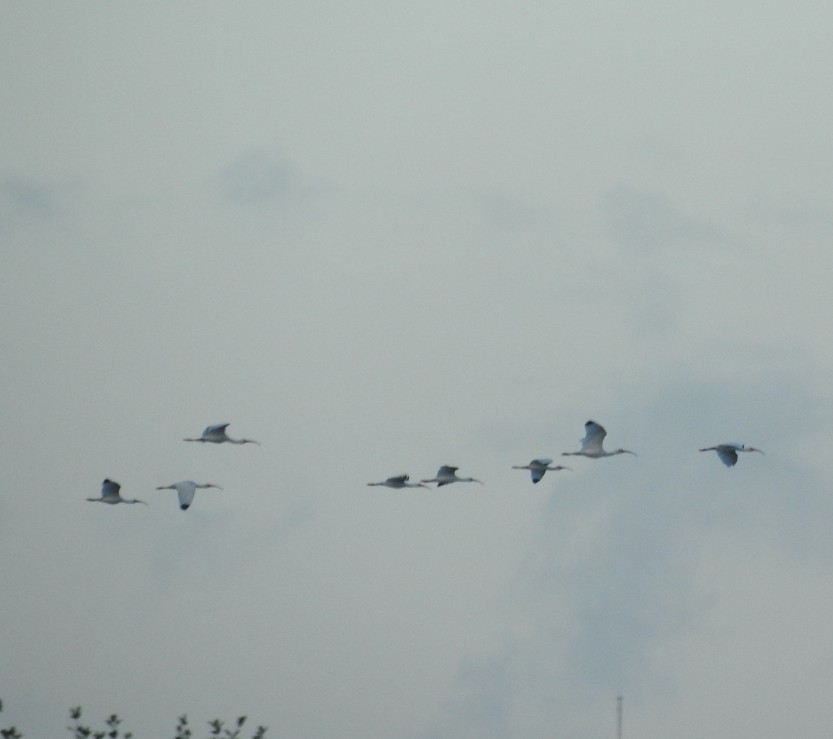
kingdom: Animalia
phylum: Chordata
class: Aves
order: Pelecaniformes
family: Threskiornithidae
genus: Eudocimus
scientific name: Eudocimus albus
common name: White ibis
